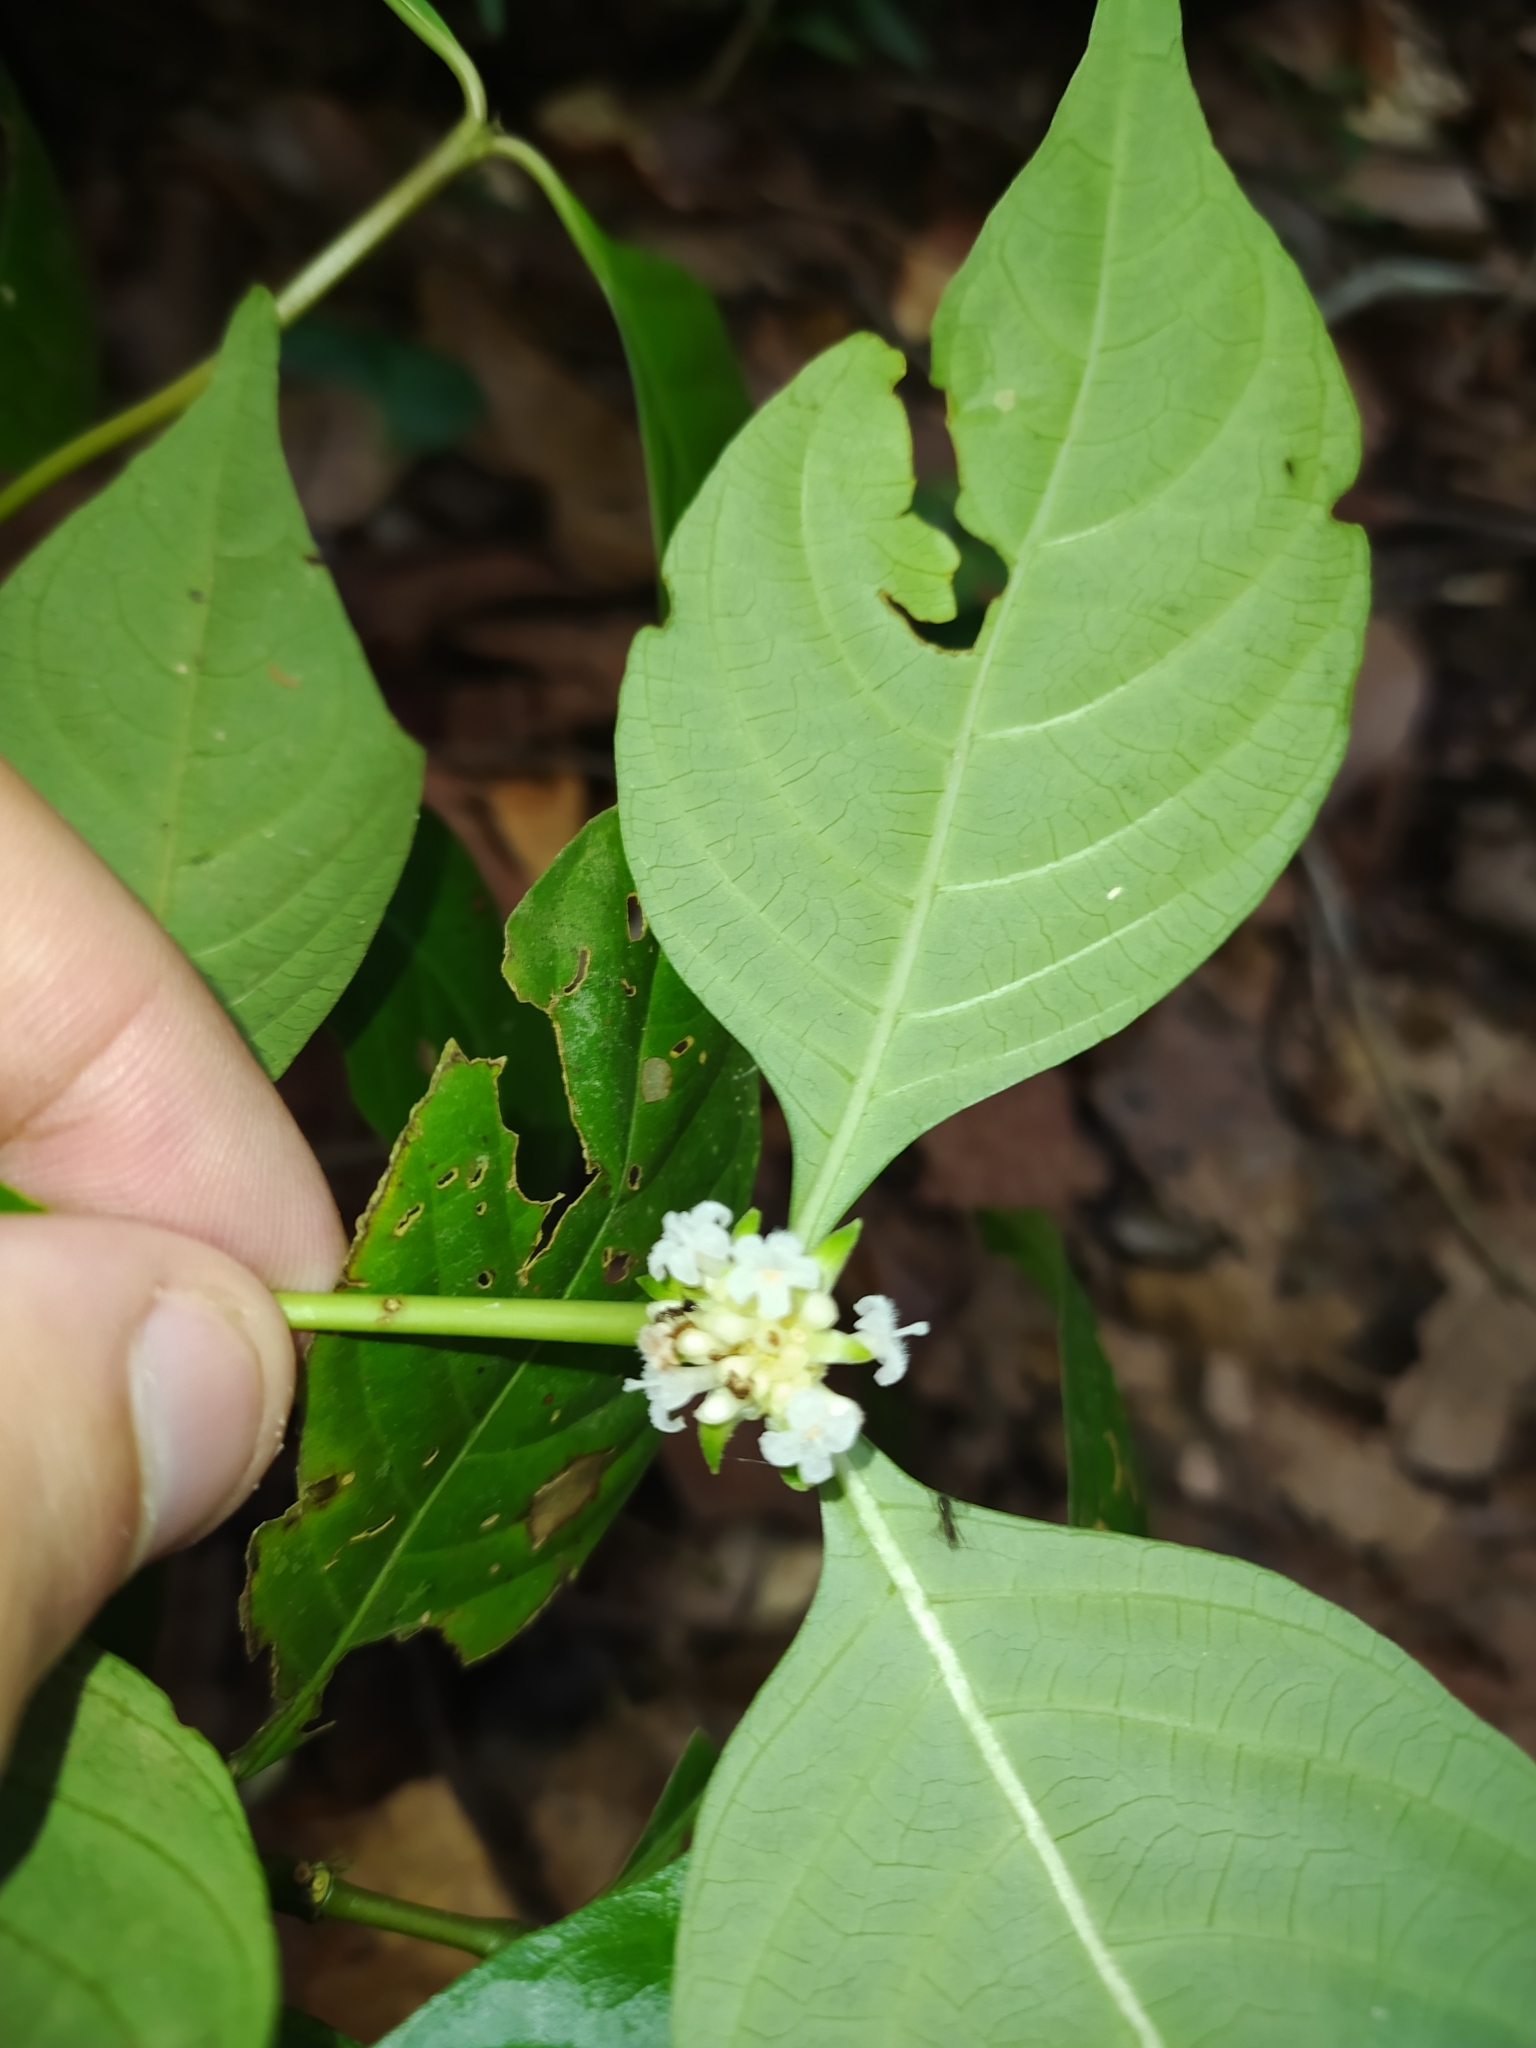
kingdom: Plantae
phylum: Tracheophyta
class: Magnoliopsida
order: Gentianales
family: Rubiaceae
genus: Palicourea
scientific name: Palicourea hoffmannseggiana
